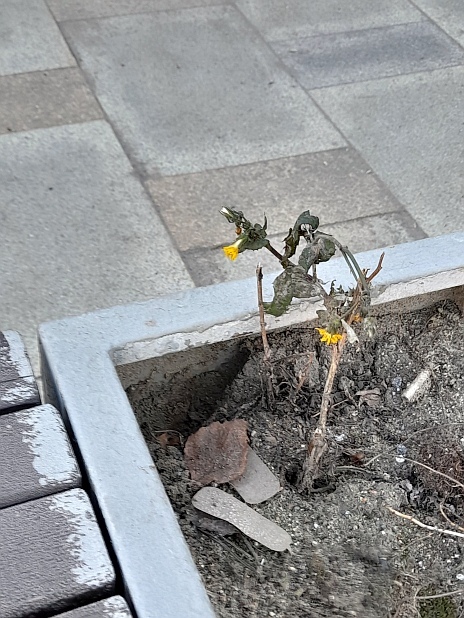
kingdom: Plantae
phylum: Tracheophyta
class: Magnoliopsida
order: Asterales
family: Asteraceae
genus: Sonchus
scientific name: Sonchus oleraceus
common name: Common sowthistle
